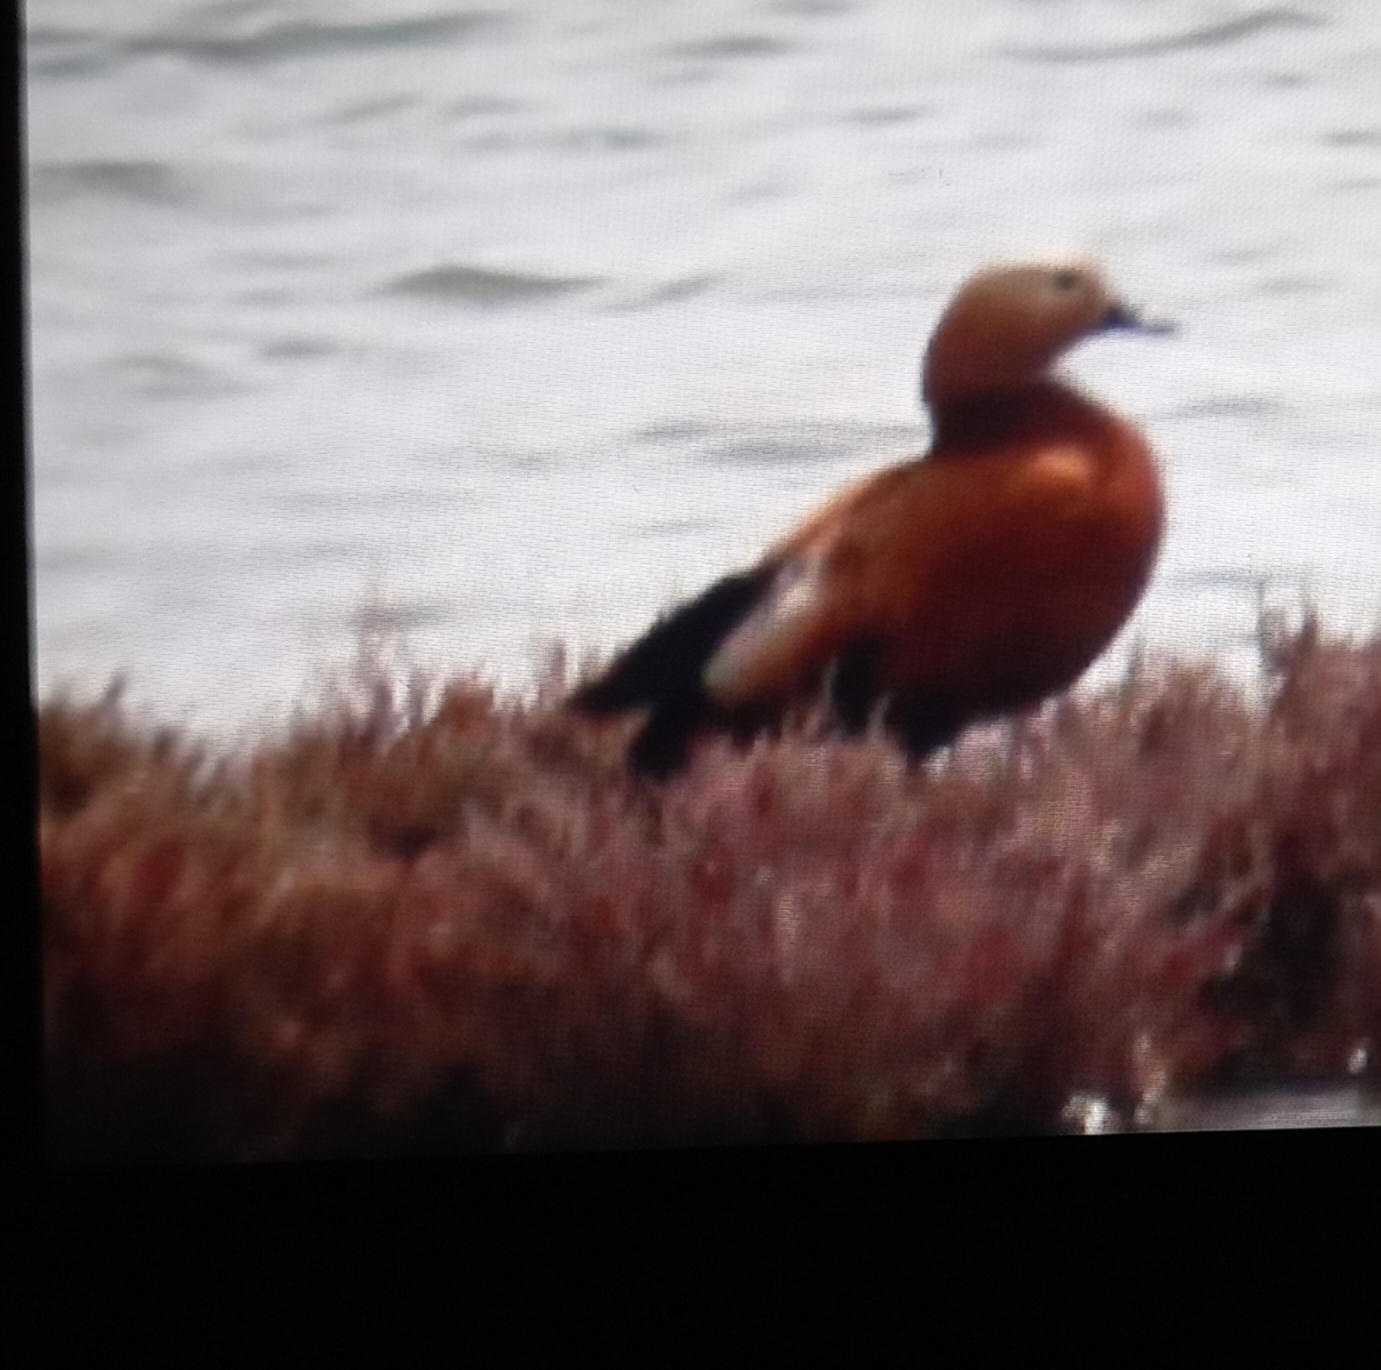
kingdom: Animalia
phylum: Chordata
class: Aves
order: Anseriformes
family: Anatidae
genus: Tadorna
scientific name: Tadorna ferruginea
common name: Ruddy shelduck
